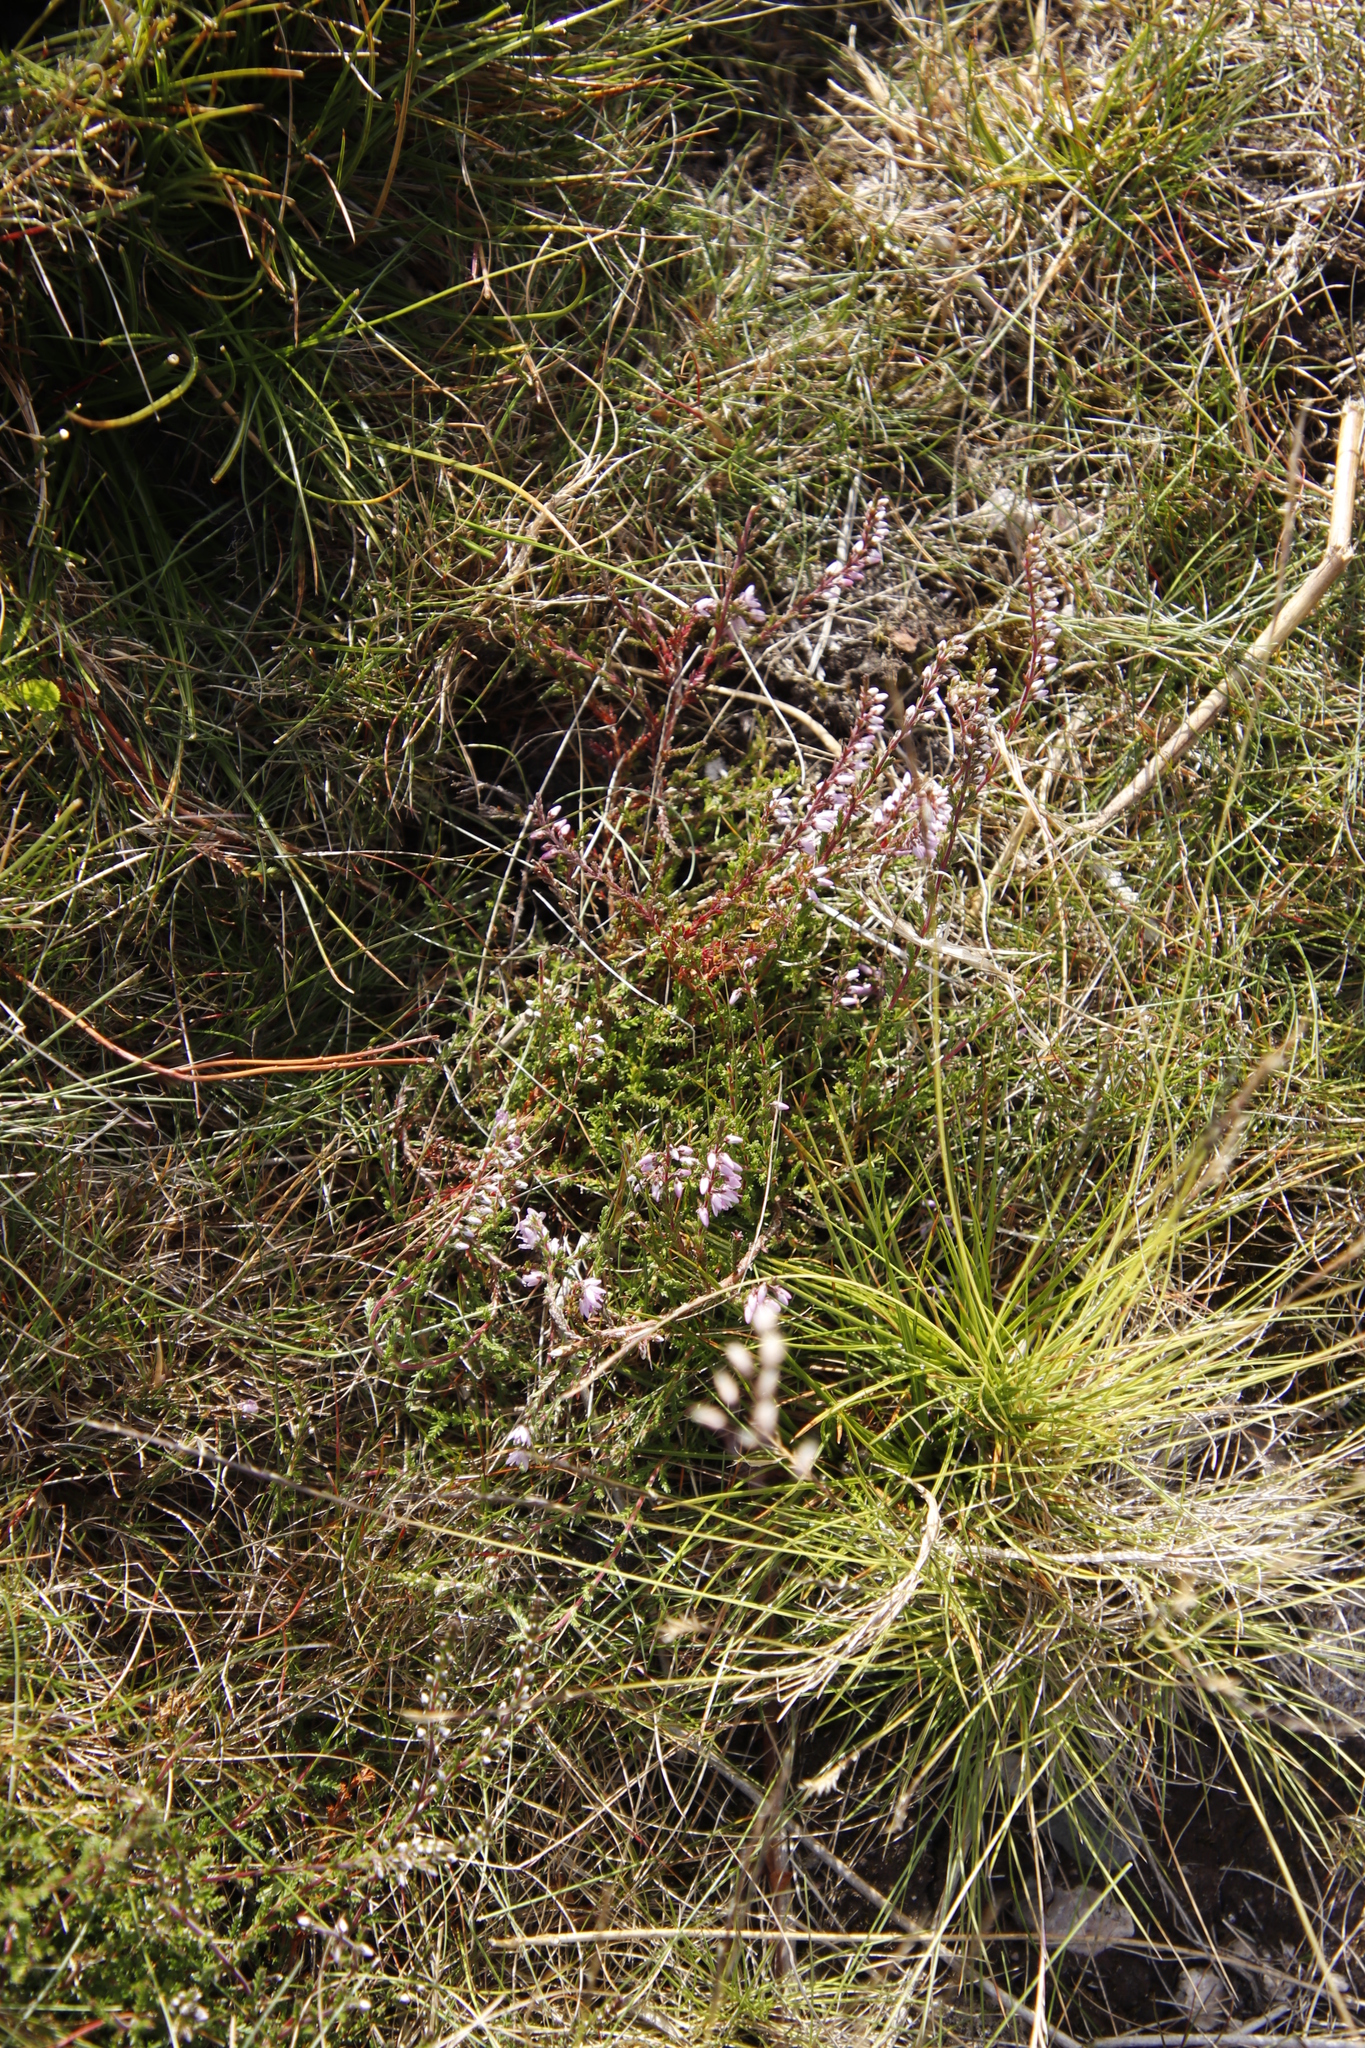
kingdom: Plantae
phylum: Tracheophyta
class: Magnoliopsida
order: Ericales
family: Ericaceae
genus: Calluna
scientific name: Calluna vulgaris
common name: Heather
